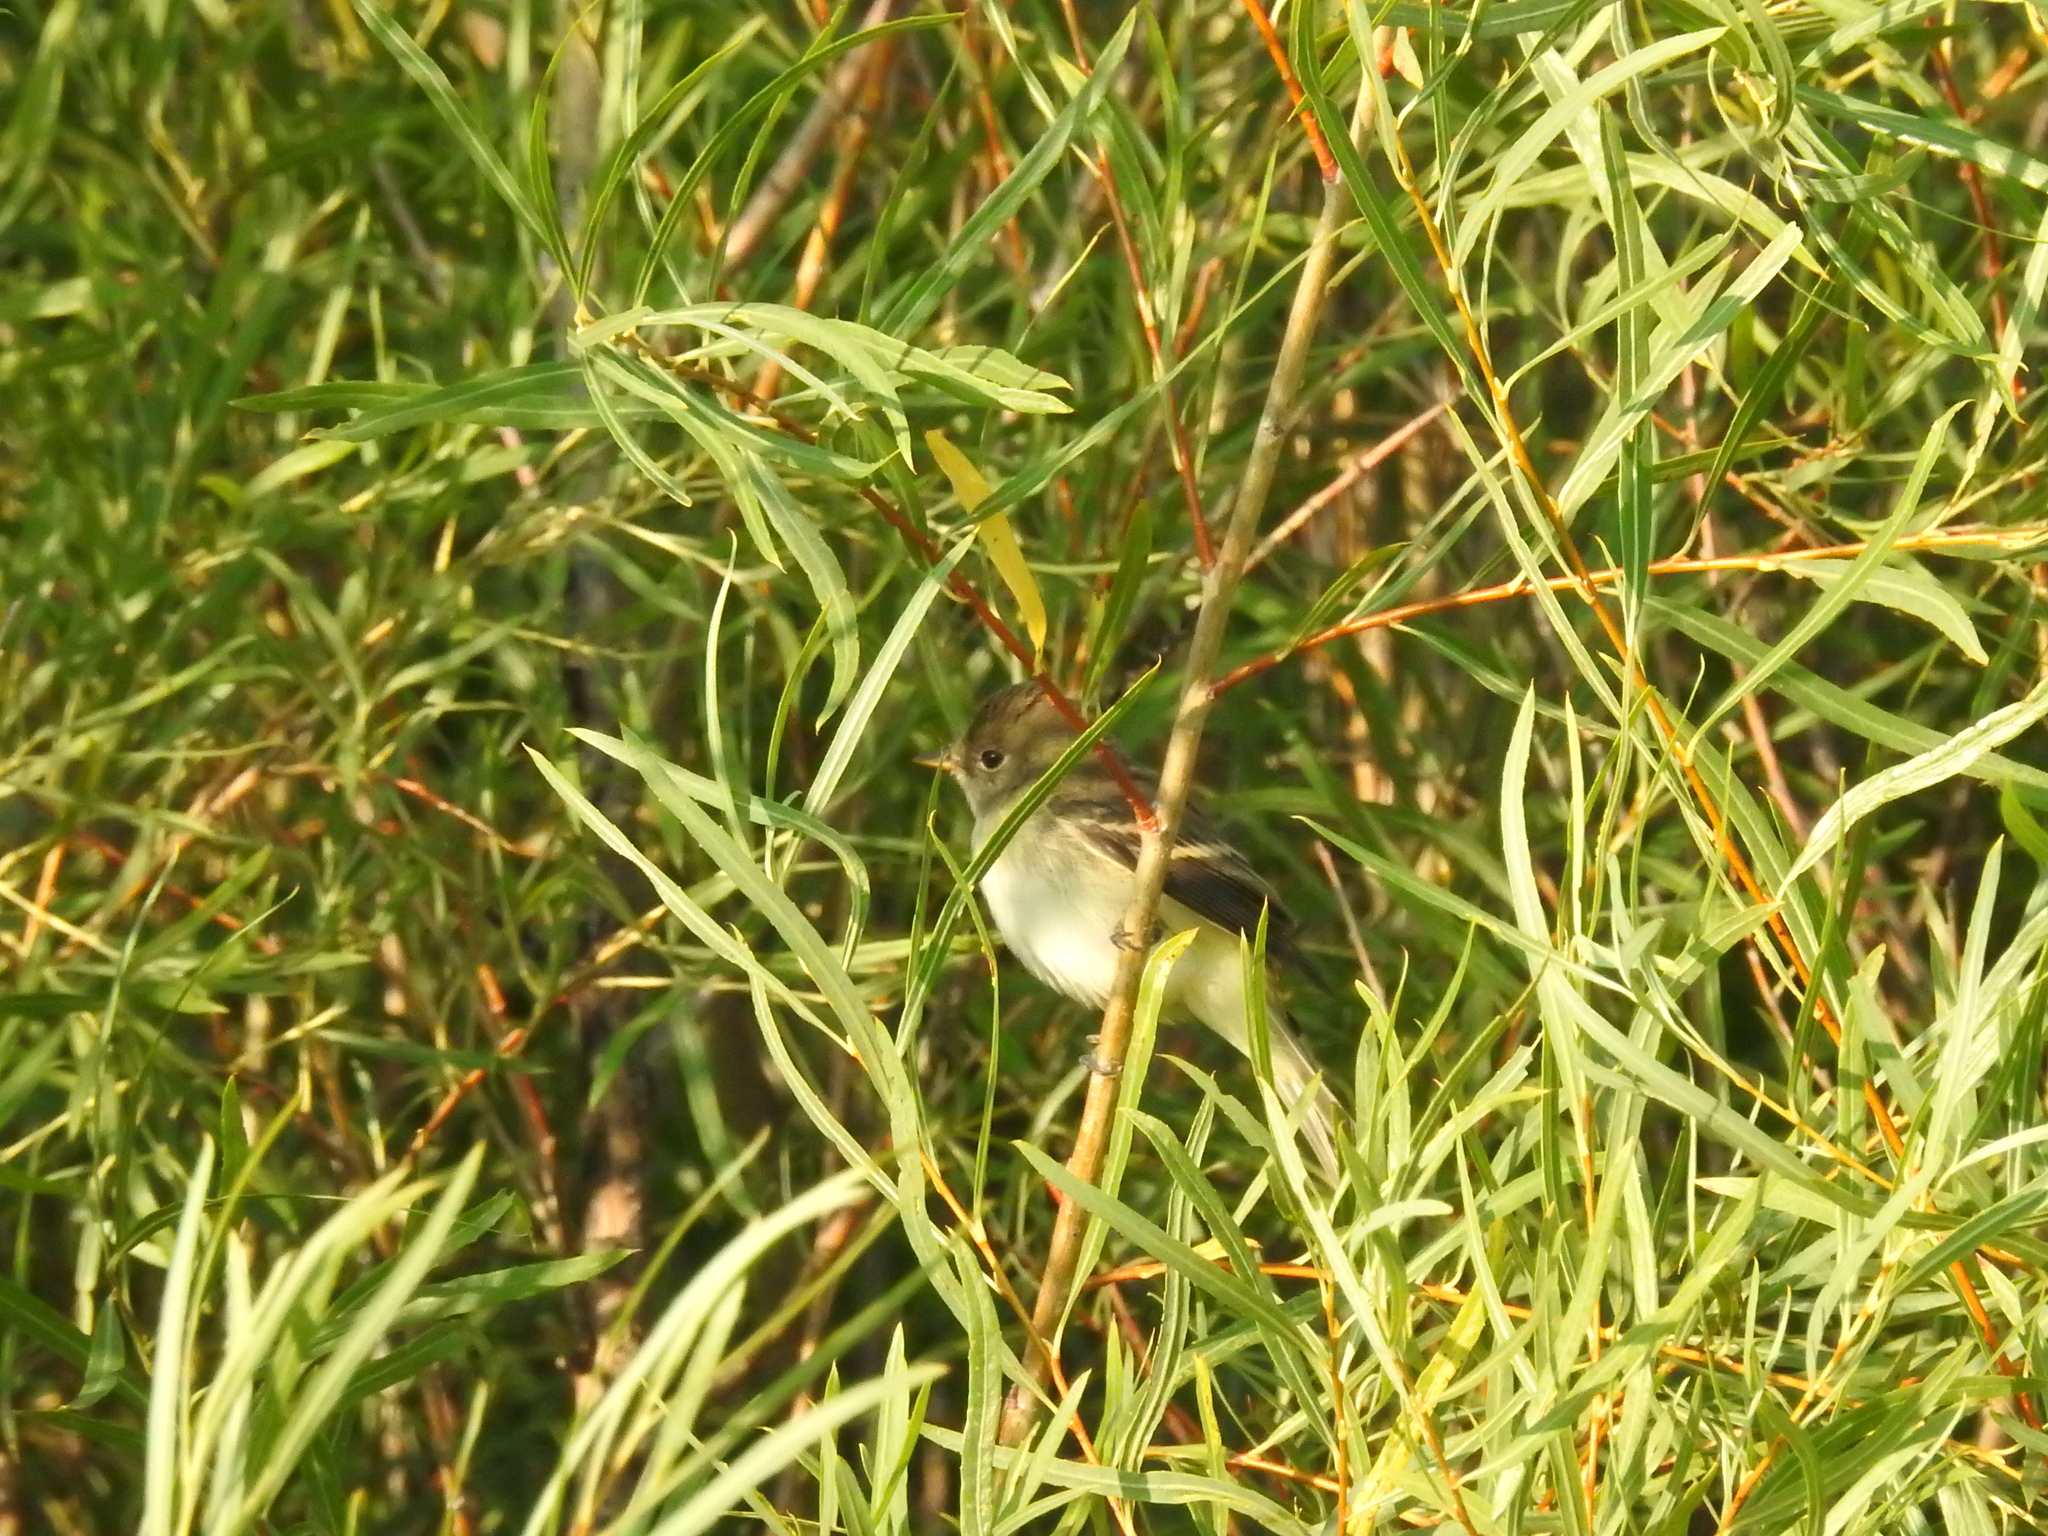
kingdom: Animalia
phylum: Chordata
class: Aves
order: Passeriformes
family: Tyrannidae
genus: Empidonax
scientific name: Empidonax traillii
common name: Willow flycatcher
